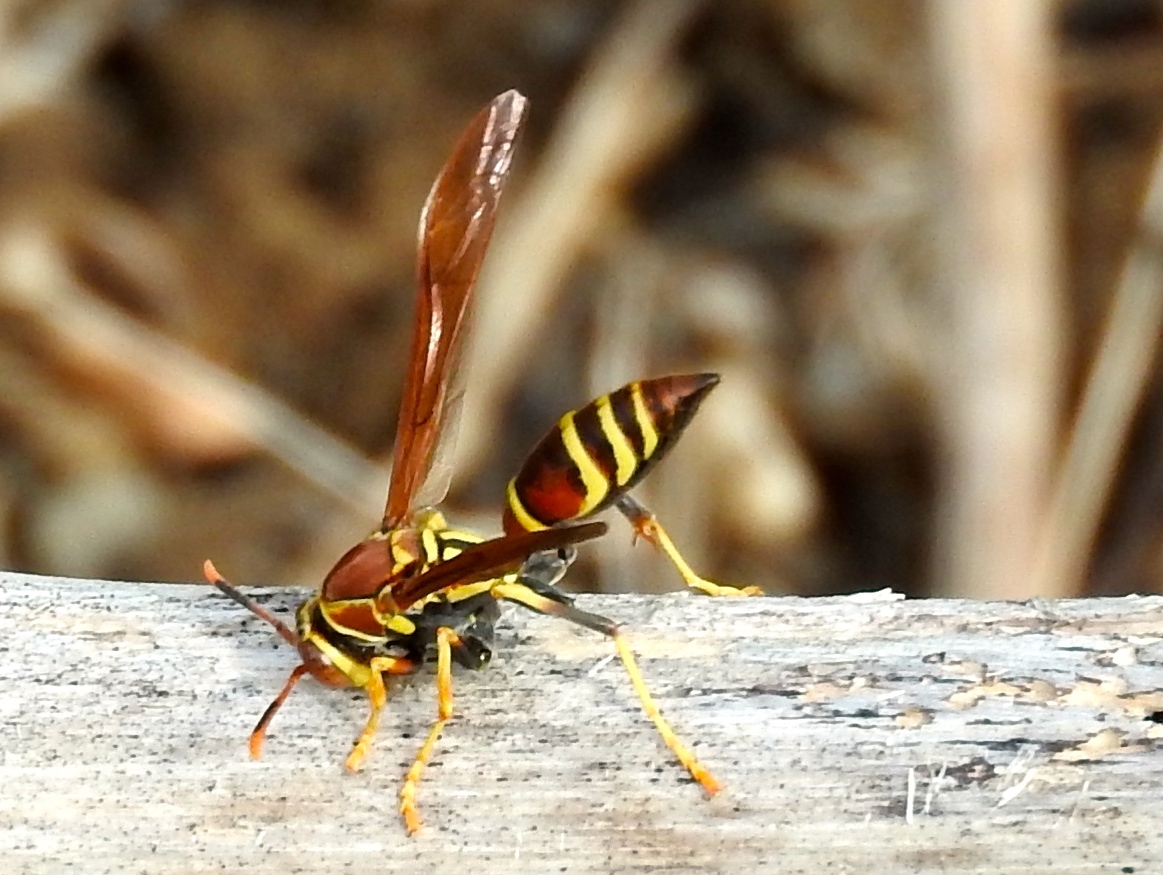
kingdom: Animalia
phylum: Arthropoda
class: Insecta
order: Hymenoptera
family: Eumenidae
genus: Polistes
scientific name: Polistes instabilis
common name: Unstable paper wasp
